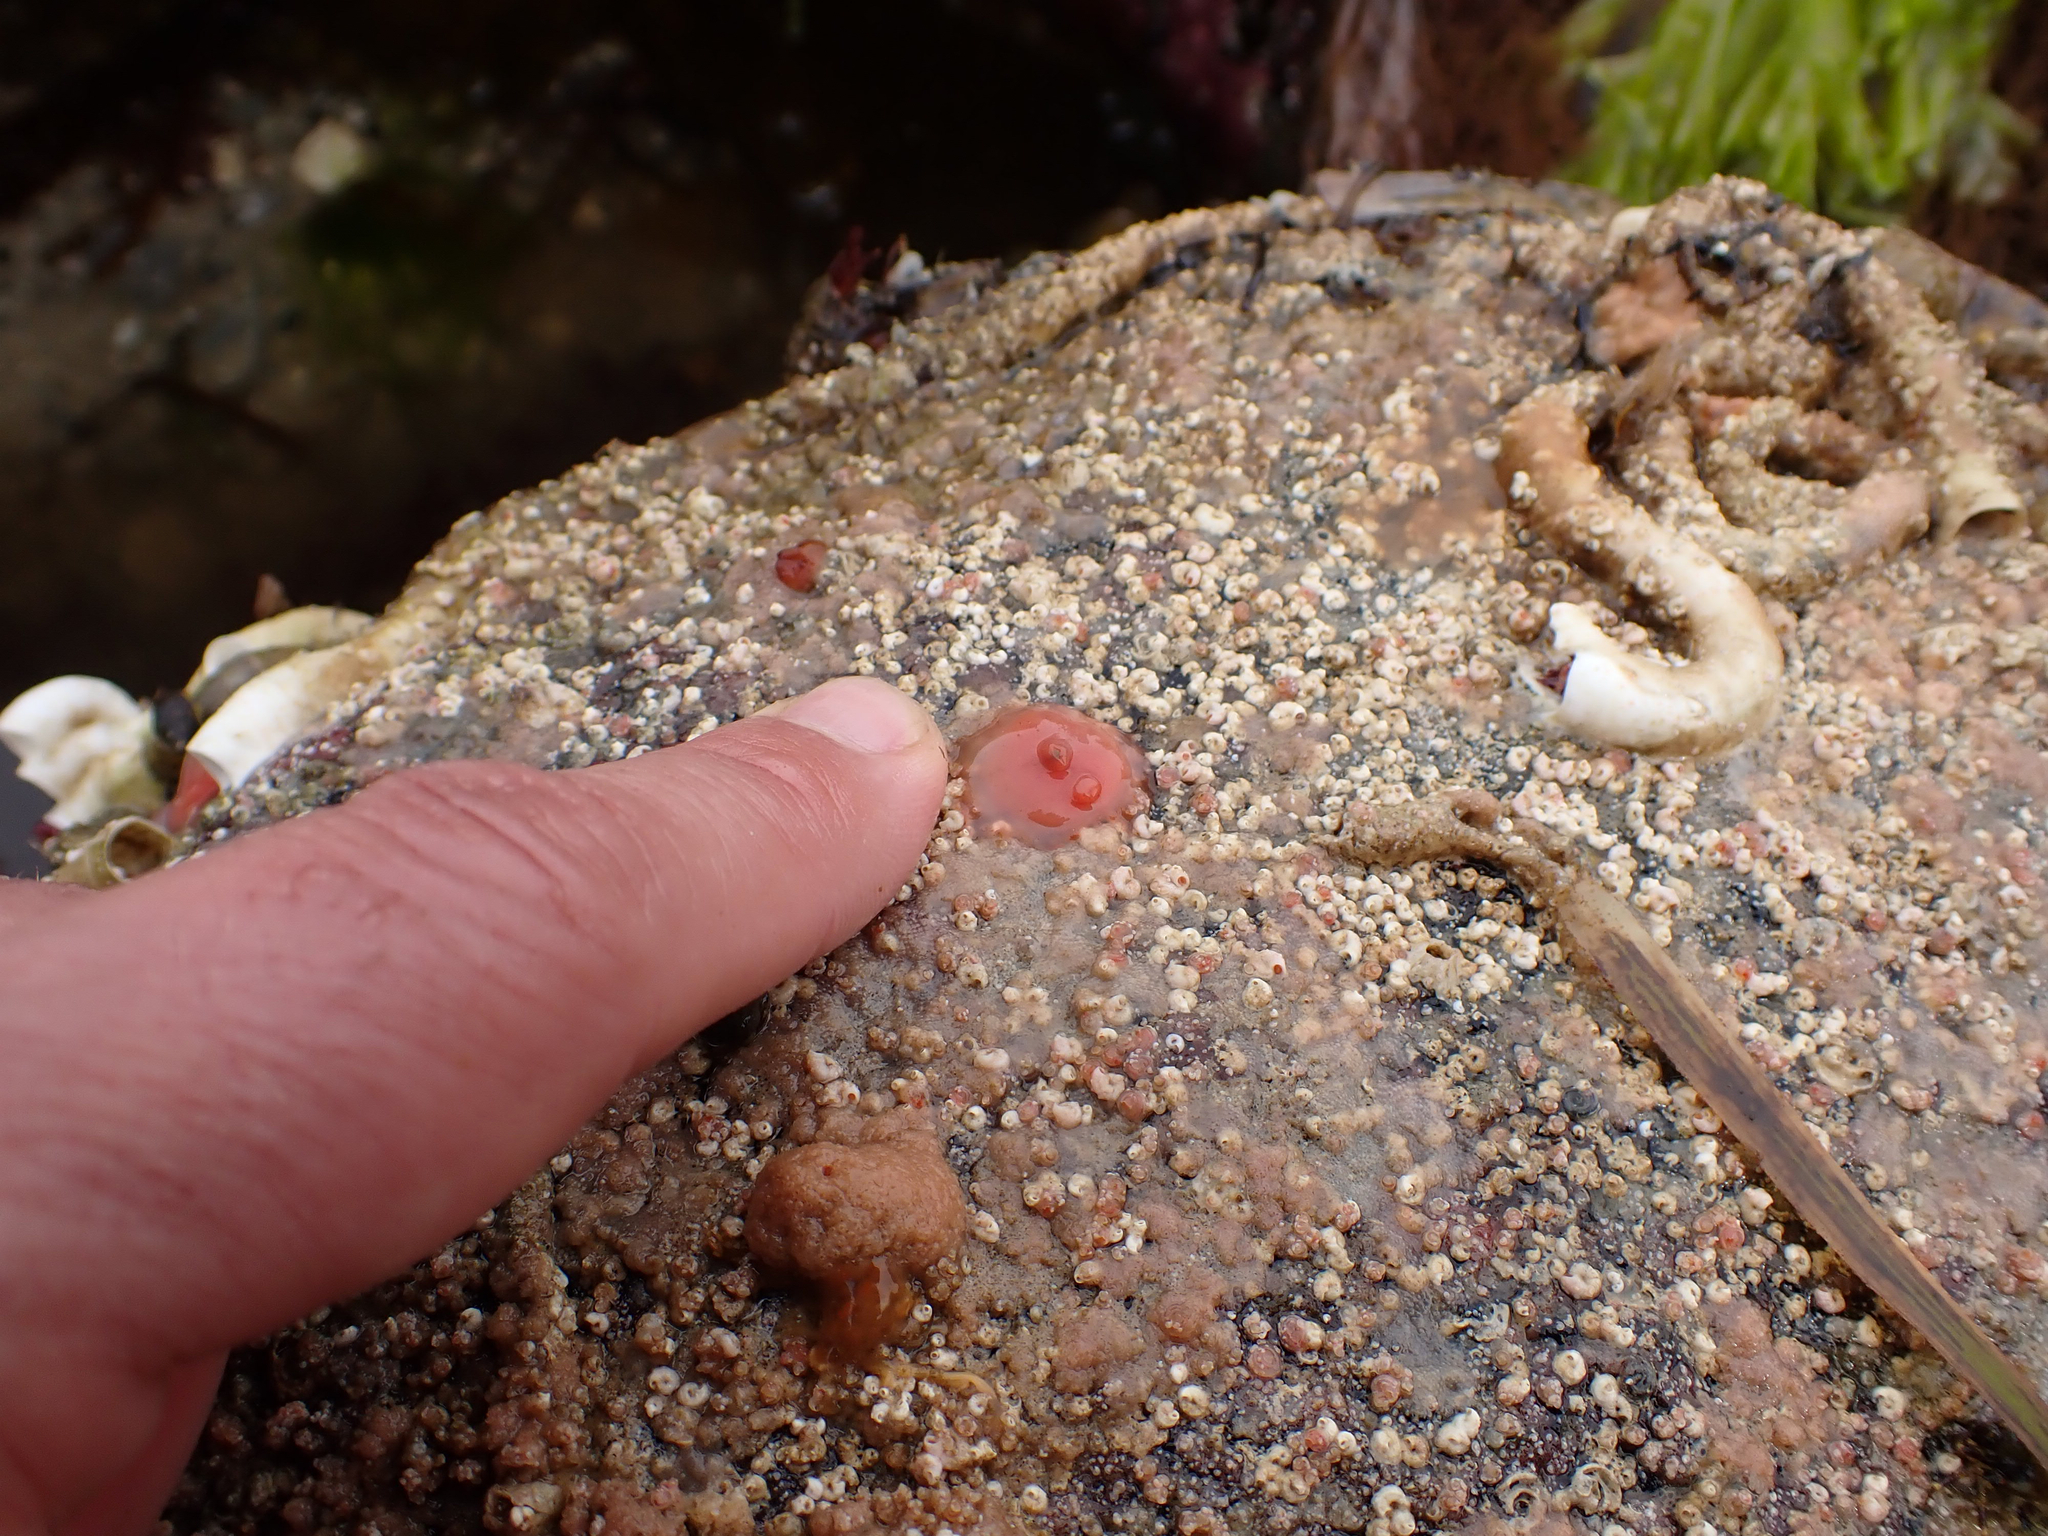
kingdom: Animalia
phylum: Chordata
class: Ascidiacea
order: Stolidobranchia
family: Styelidae
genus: Cnemidocarpa
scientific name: Cnemidocarpa finmarkiensis
